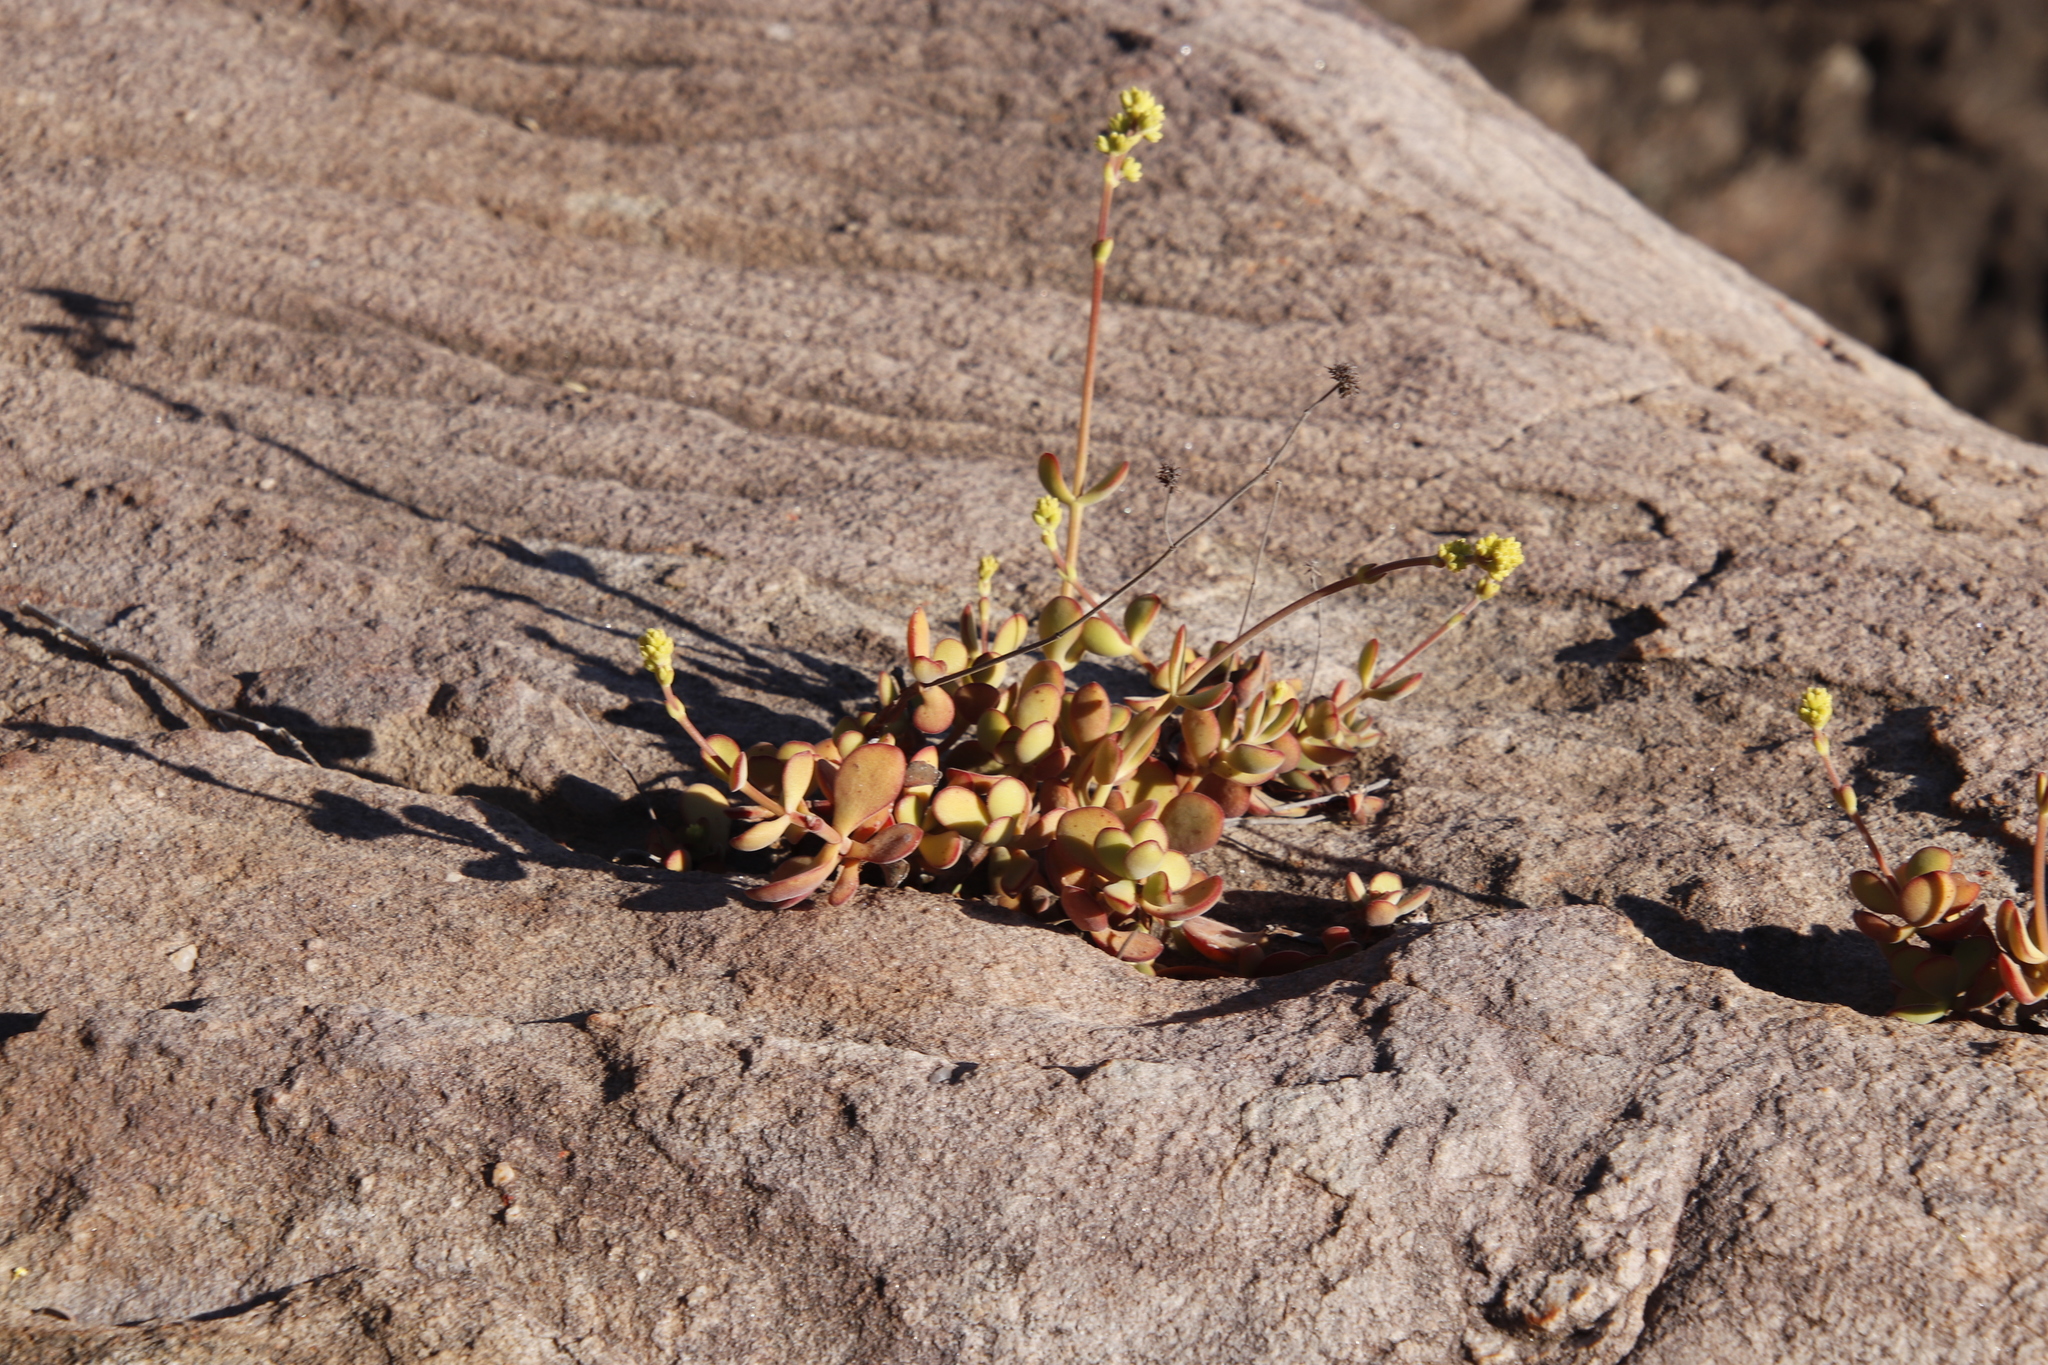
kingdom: Plantae
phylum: Tracheophyta
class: Magnoliopsida
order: Saxifragales
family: Crassulaceae
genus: Crassula
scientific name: Crassula atropurpurea
